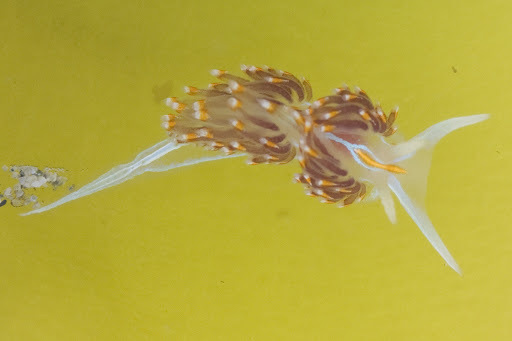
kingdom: Animalia
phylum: Mollusca
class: Gastropoda
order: Nudibranchia
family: Myrrhinidae
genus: Hermissenda
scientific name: Hermissenda opalescens
